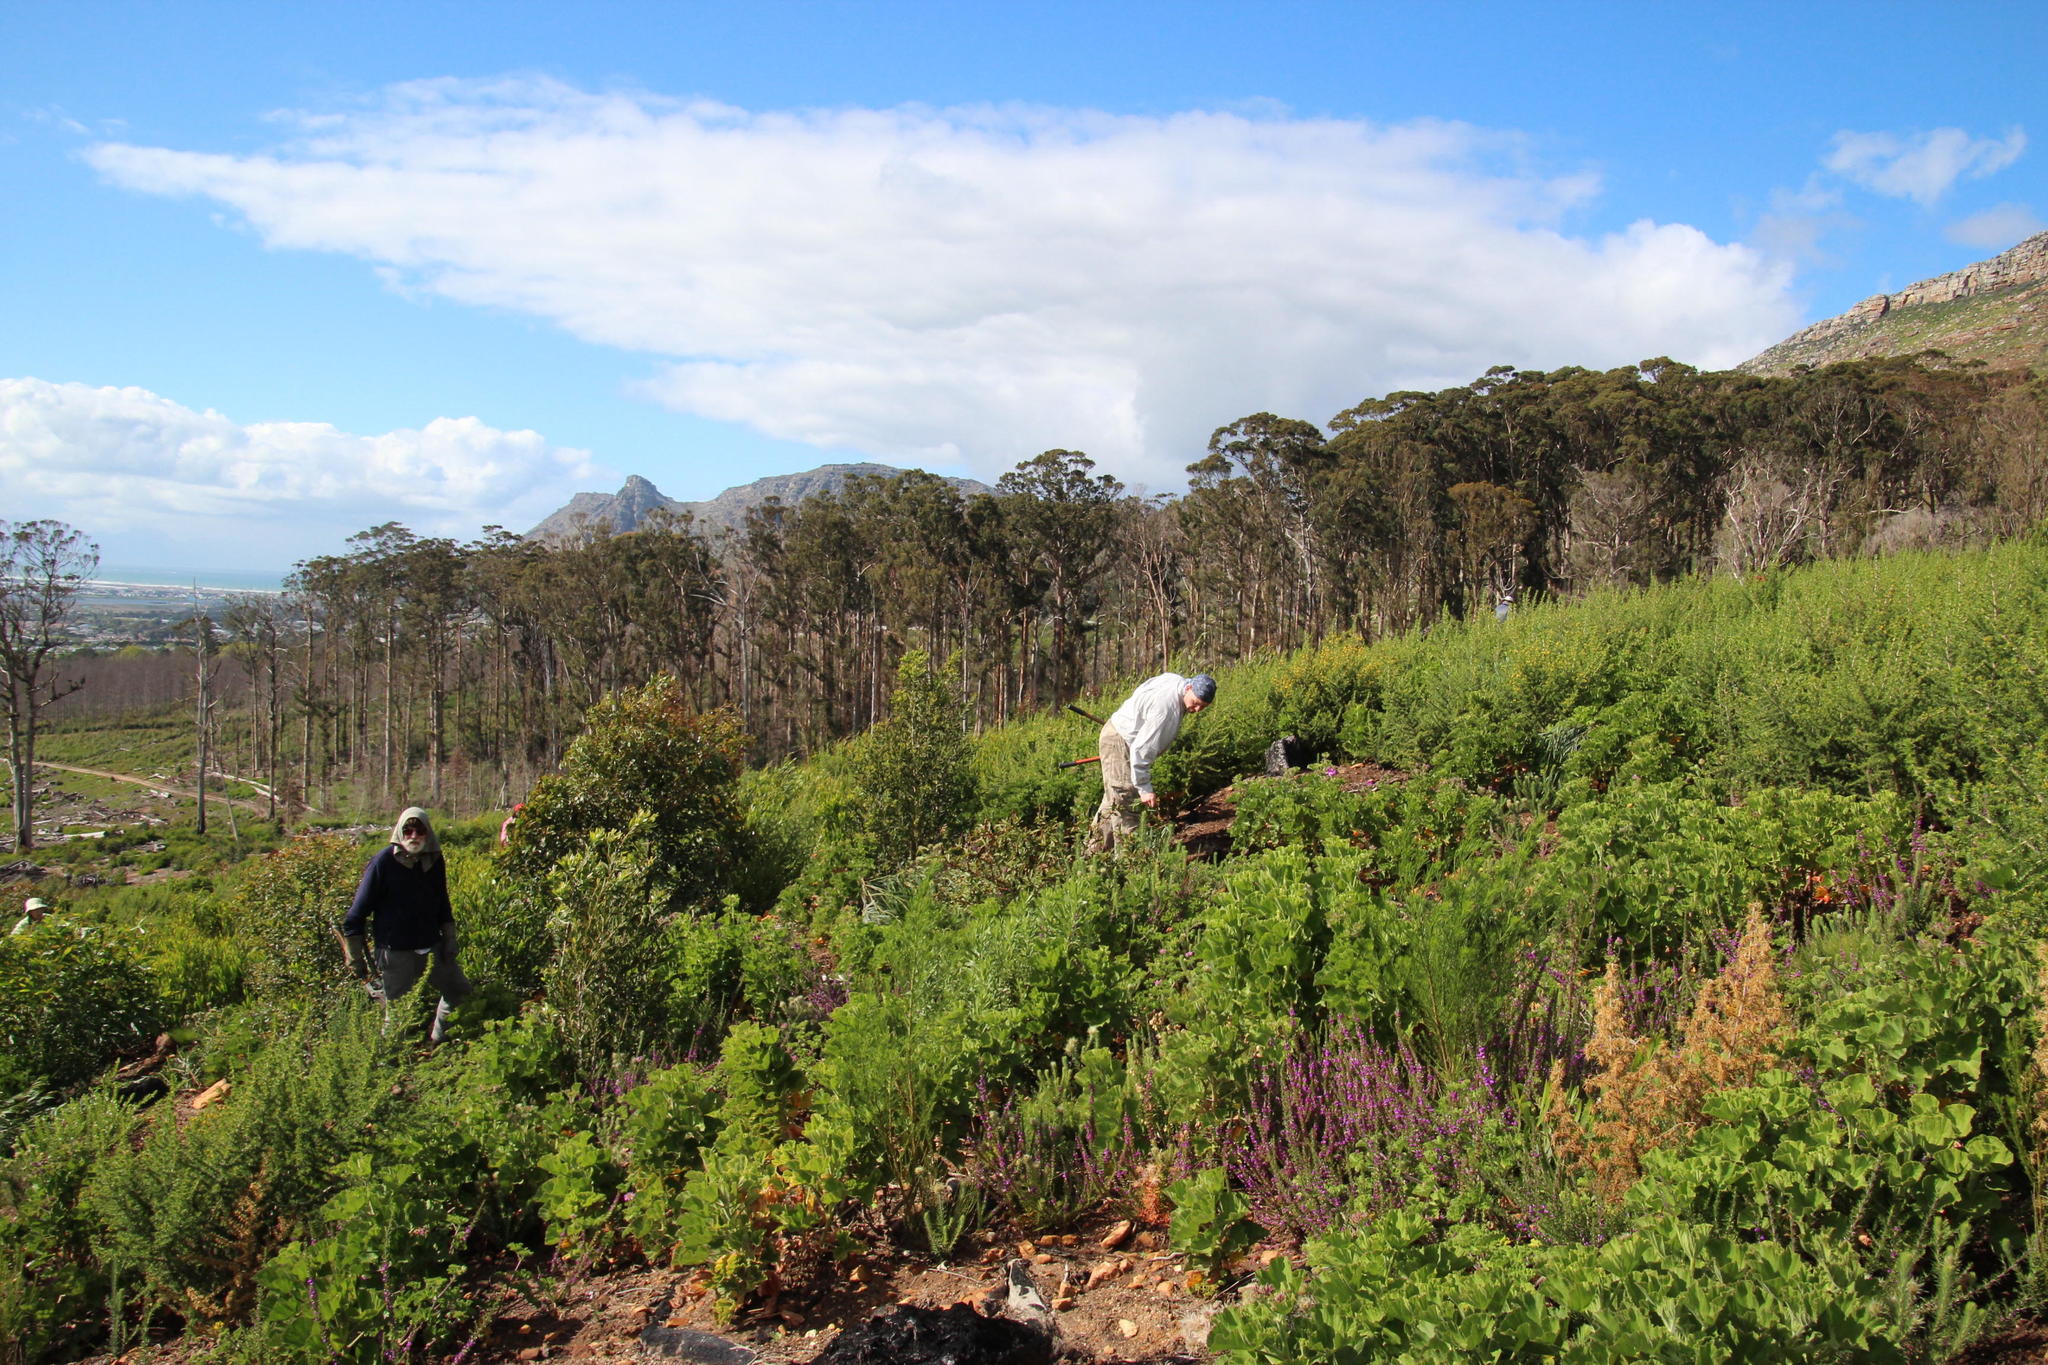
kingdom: Plantae
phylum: Tracheophyta
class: Magnoliopsida
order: Geraniales
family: Geraniaceae
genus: Pelargonium
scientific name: Pelargonium cucullatum
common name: Tree pelargonium
